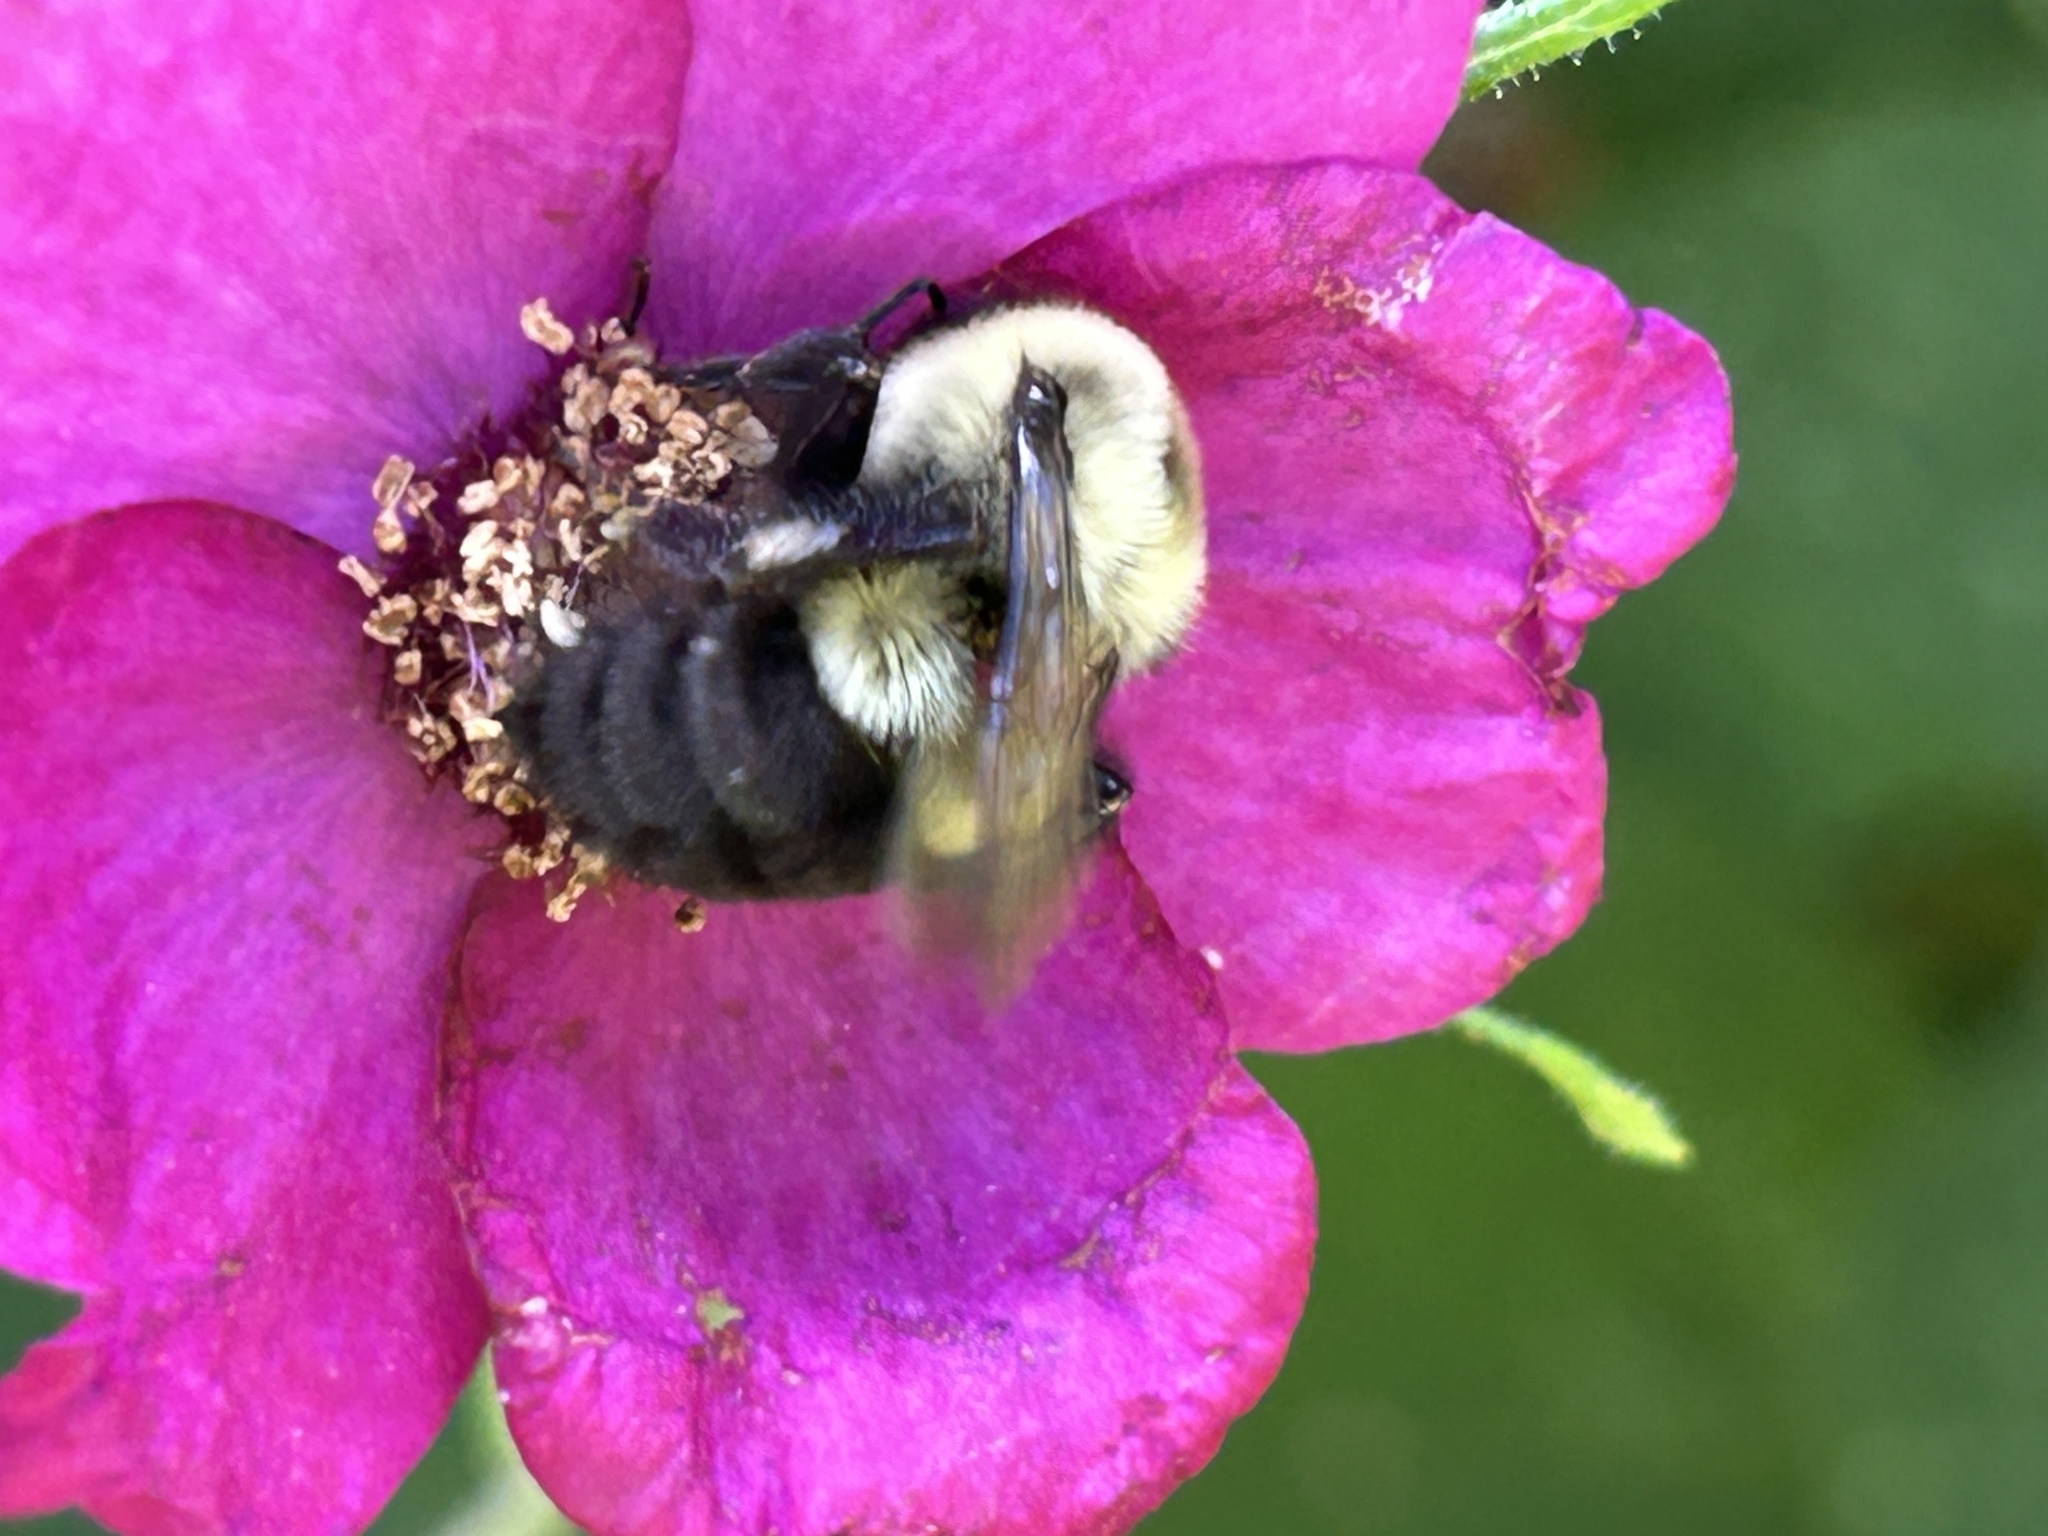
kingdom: Animalia
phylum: Arthropoda
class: Insecta
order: Hymenoptera
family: Apidae
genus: Bombus
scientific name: Bombus impatiens
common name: Common eastern bumble bee
